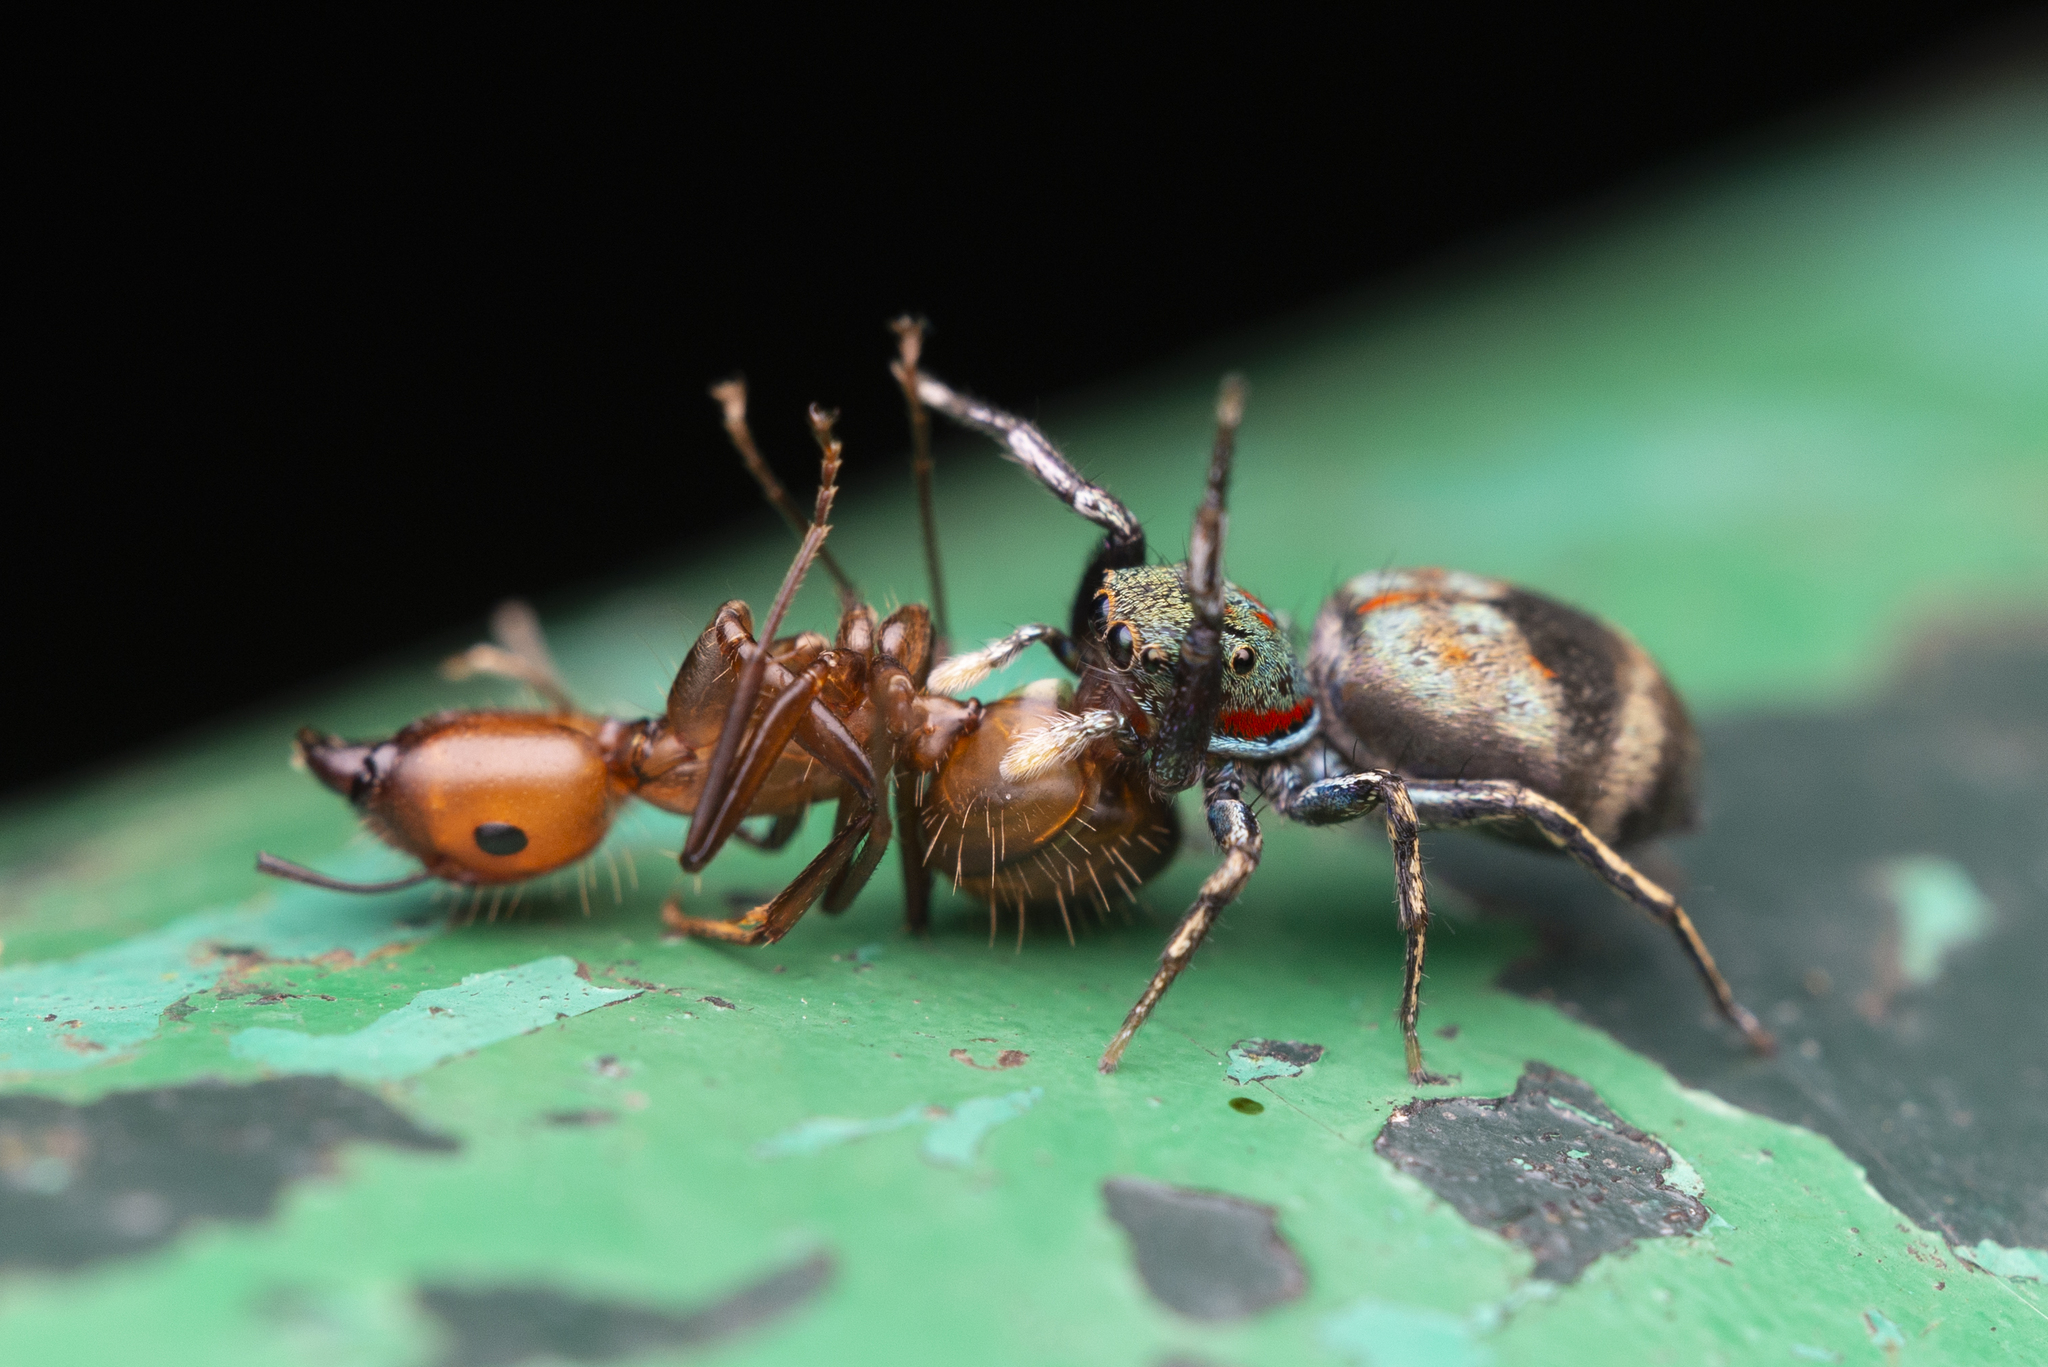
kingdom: Animalia
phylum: Arthropoda
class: Arachnida
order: Araneae
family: Salticidae
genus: Siler
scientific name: Siler collingwoodi
